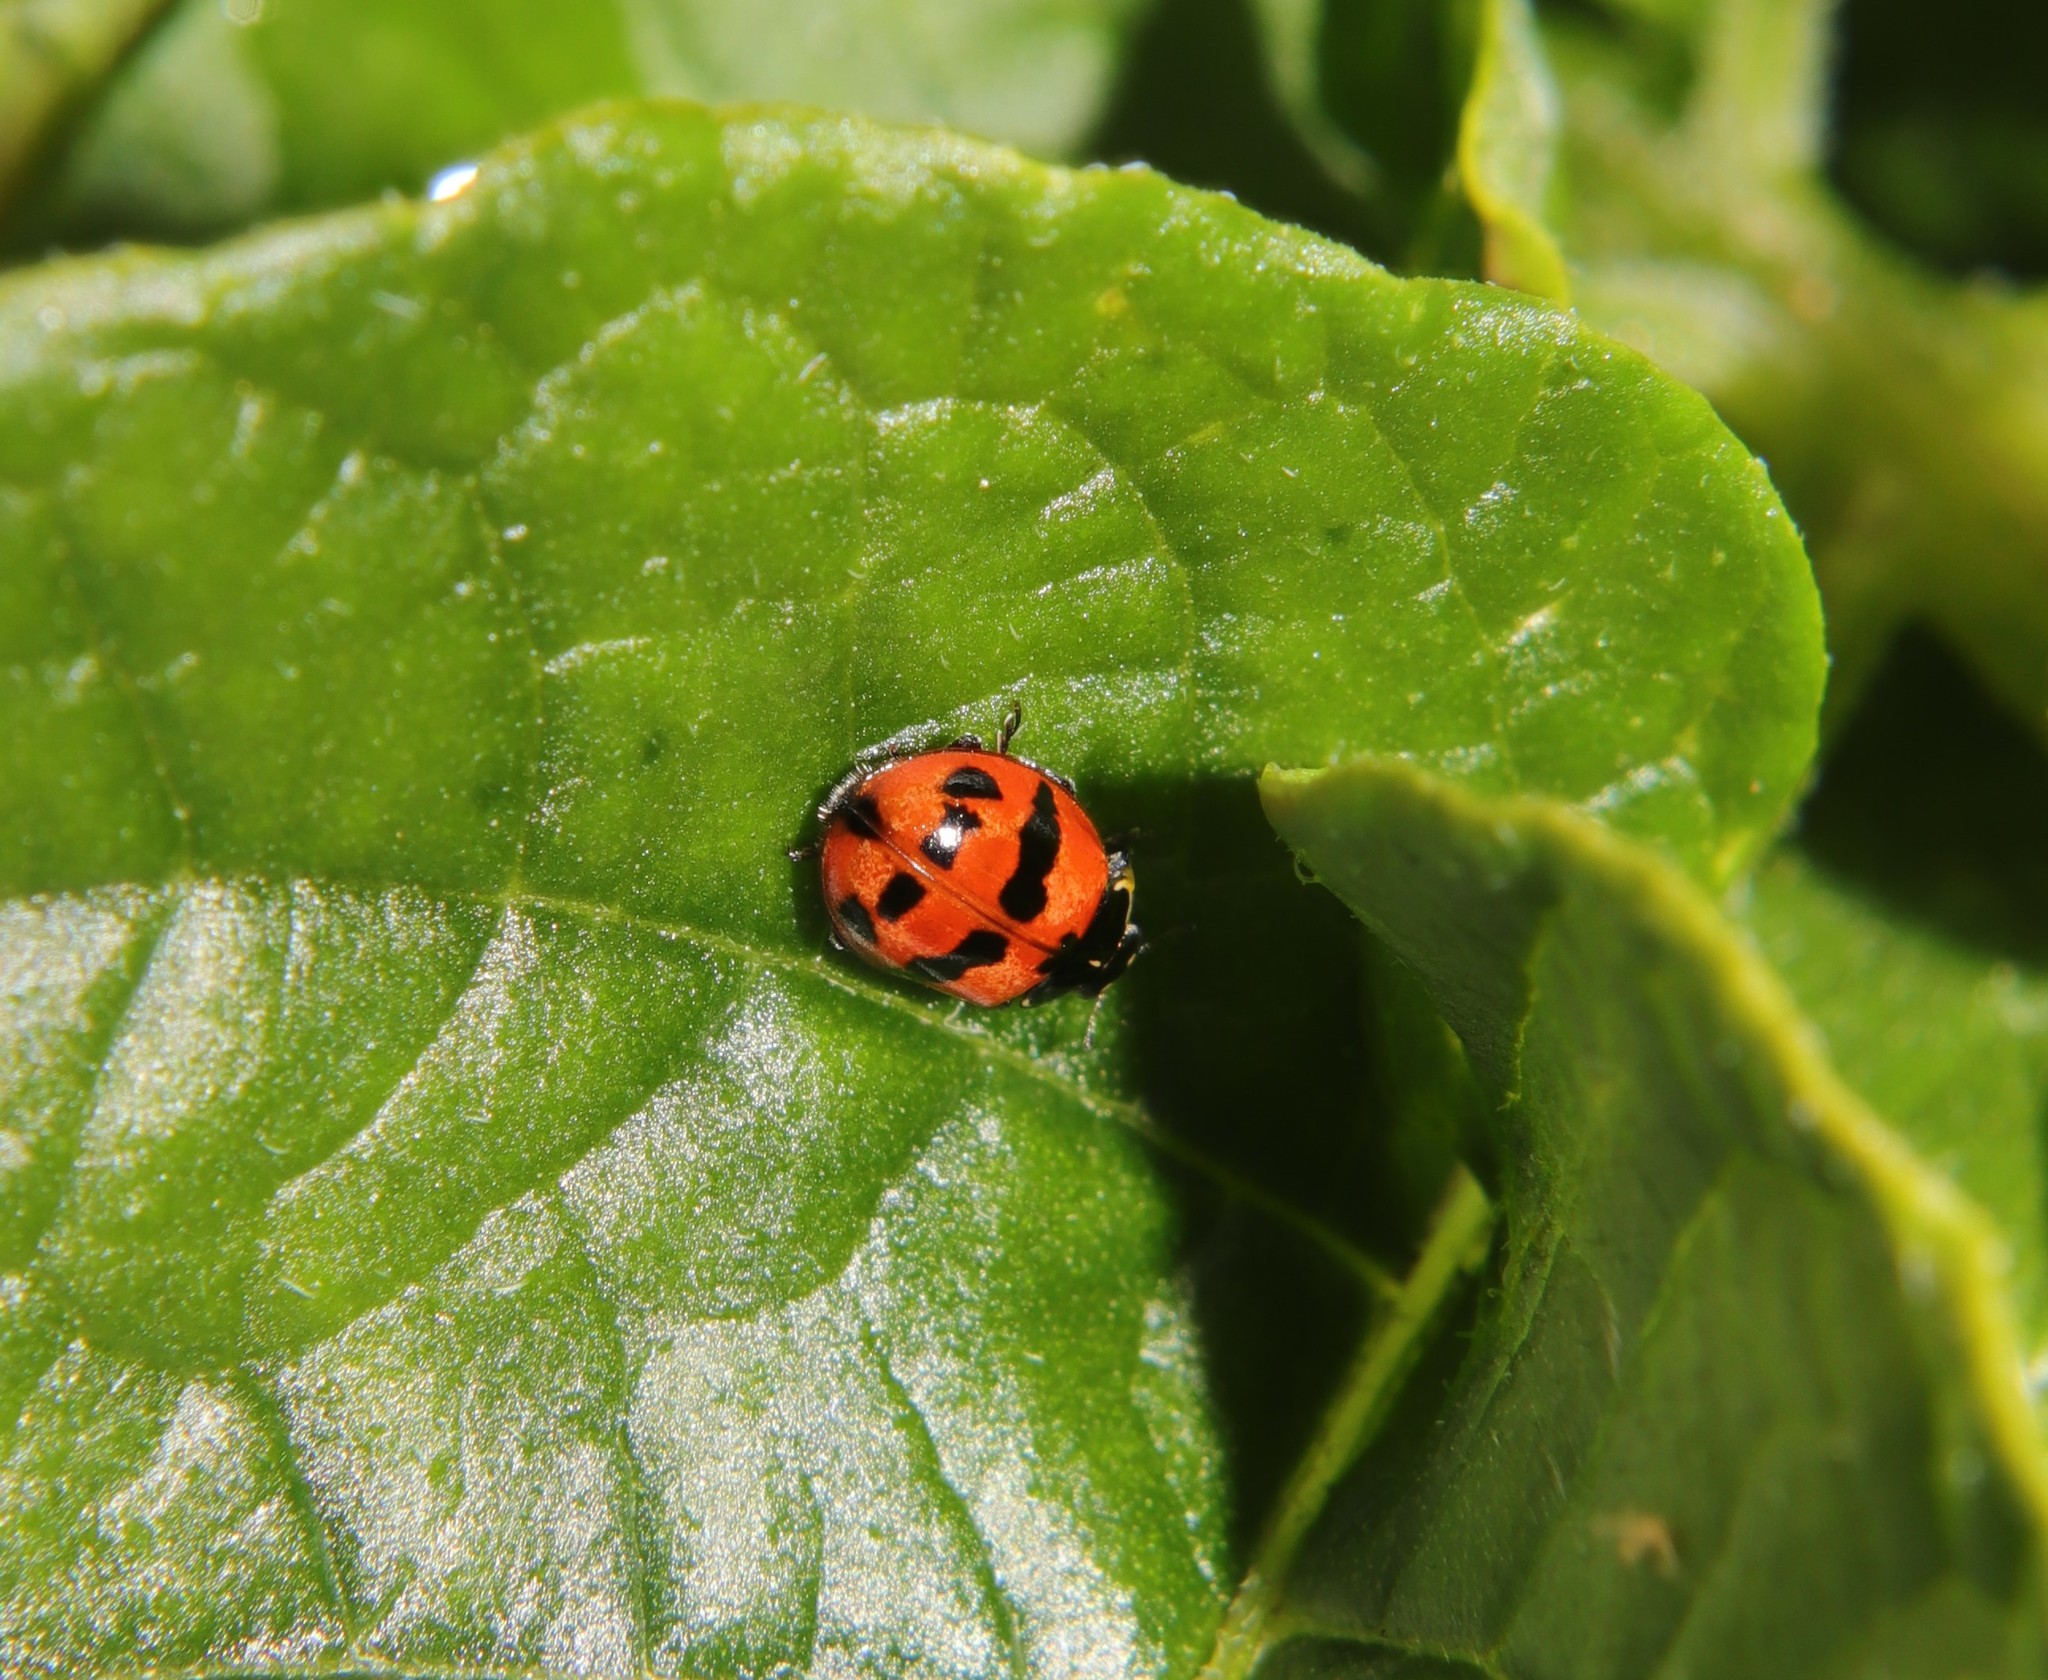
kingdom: Animalia
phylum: Arthropoda
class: Insecta
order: Coleoptera
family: Coccinellidae
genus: Adalia
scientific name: Adalia bipunctata
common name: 2-spot ladybird
